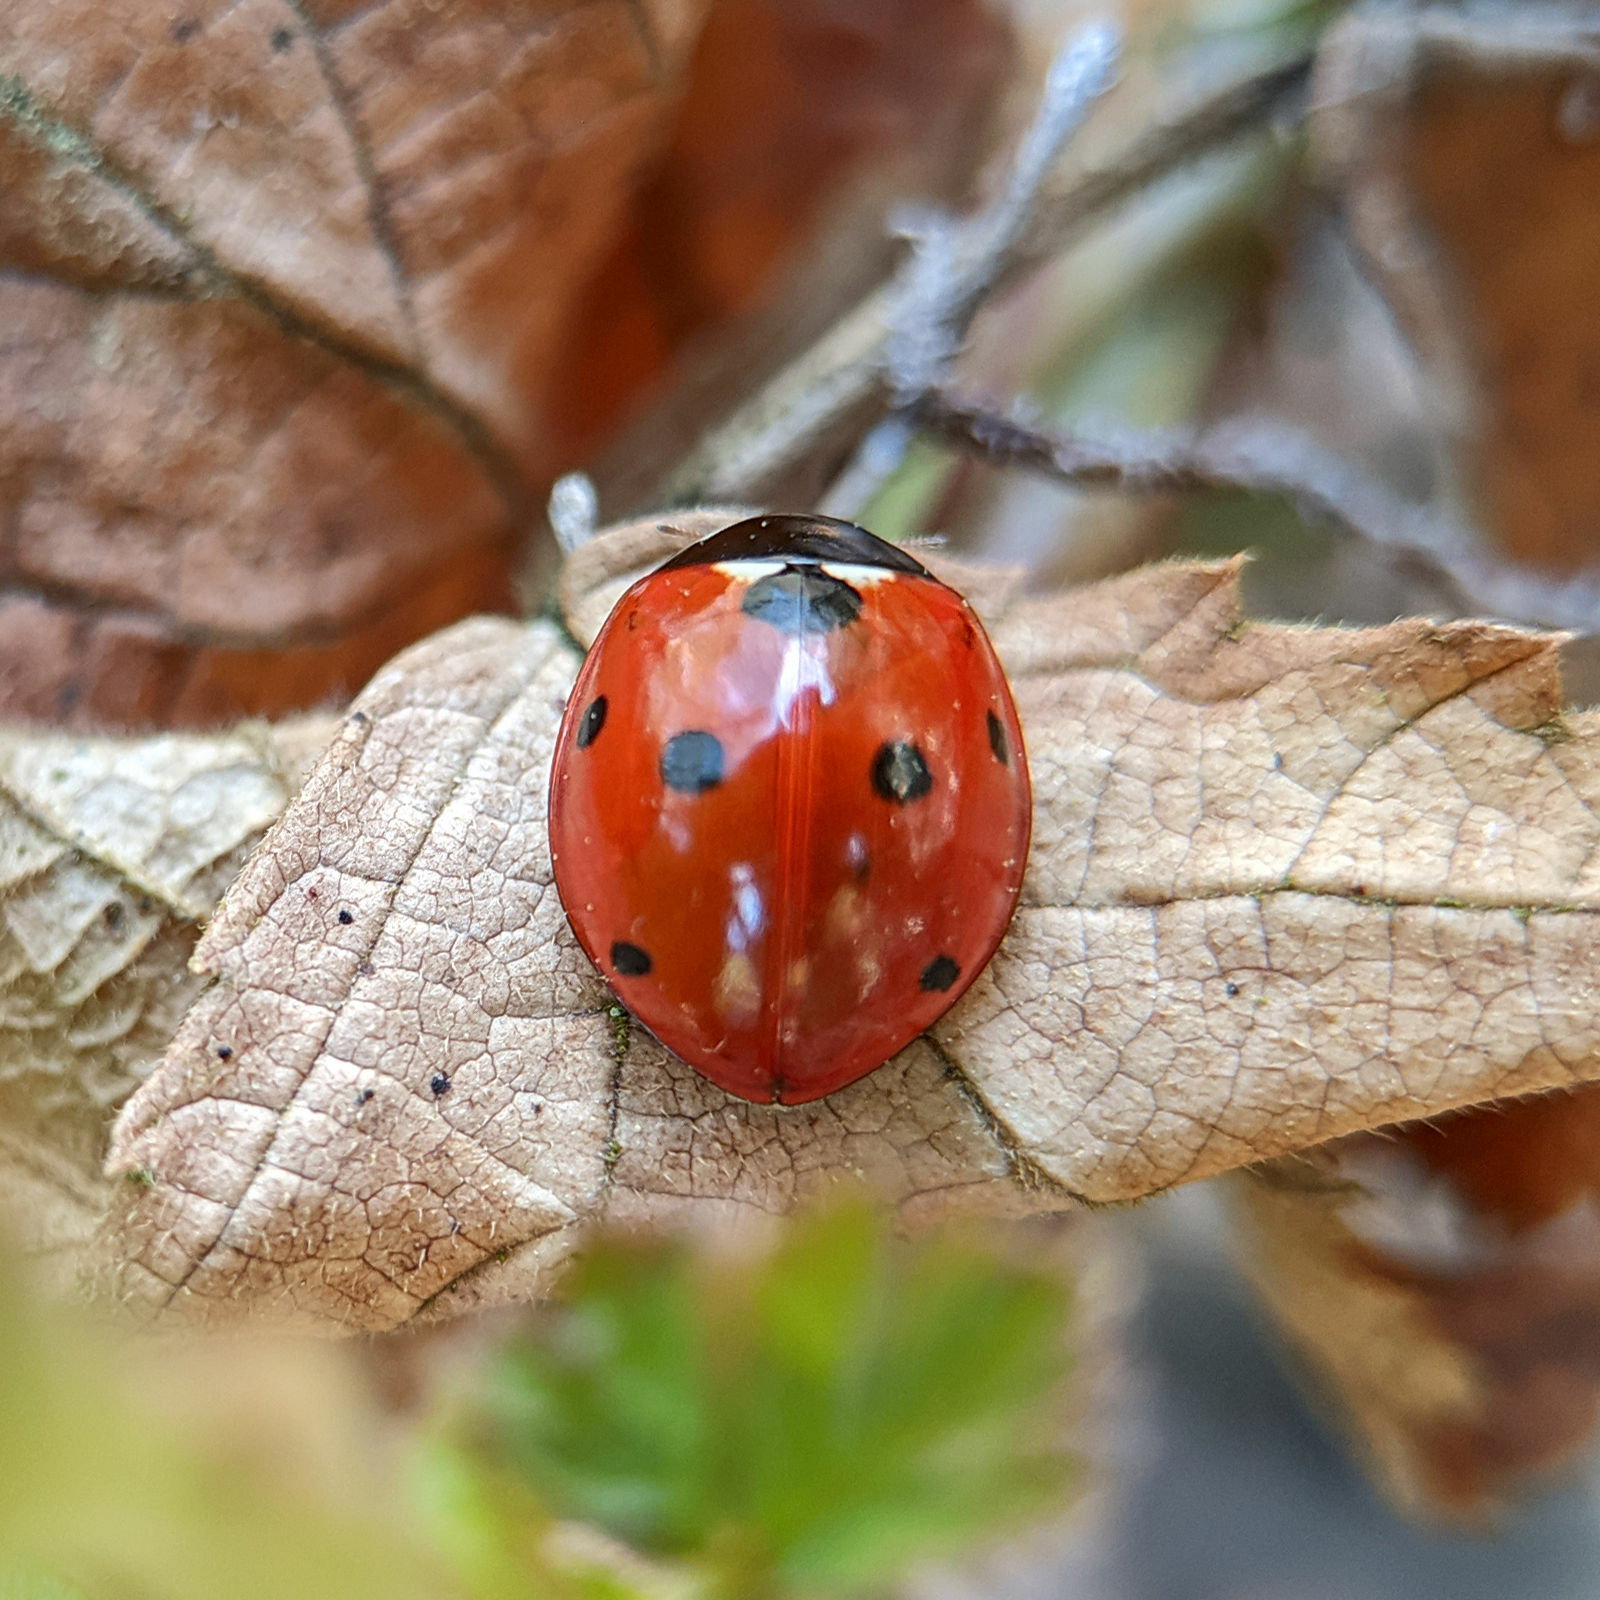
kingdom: Animalia
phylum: Arthropoda
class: Insecta
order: Coleoptera
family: Coccinellidae
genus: Coccinella
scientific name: Coccinella septempunctata
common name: Sevenspotted lady beetle
